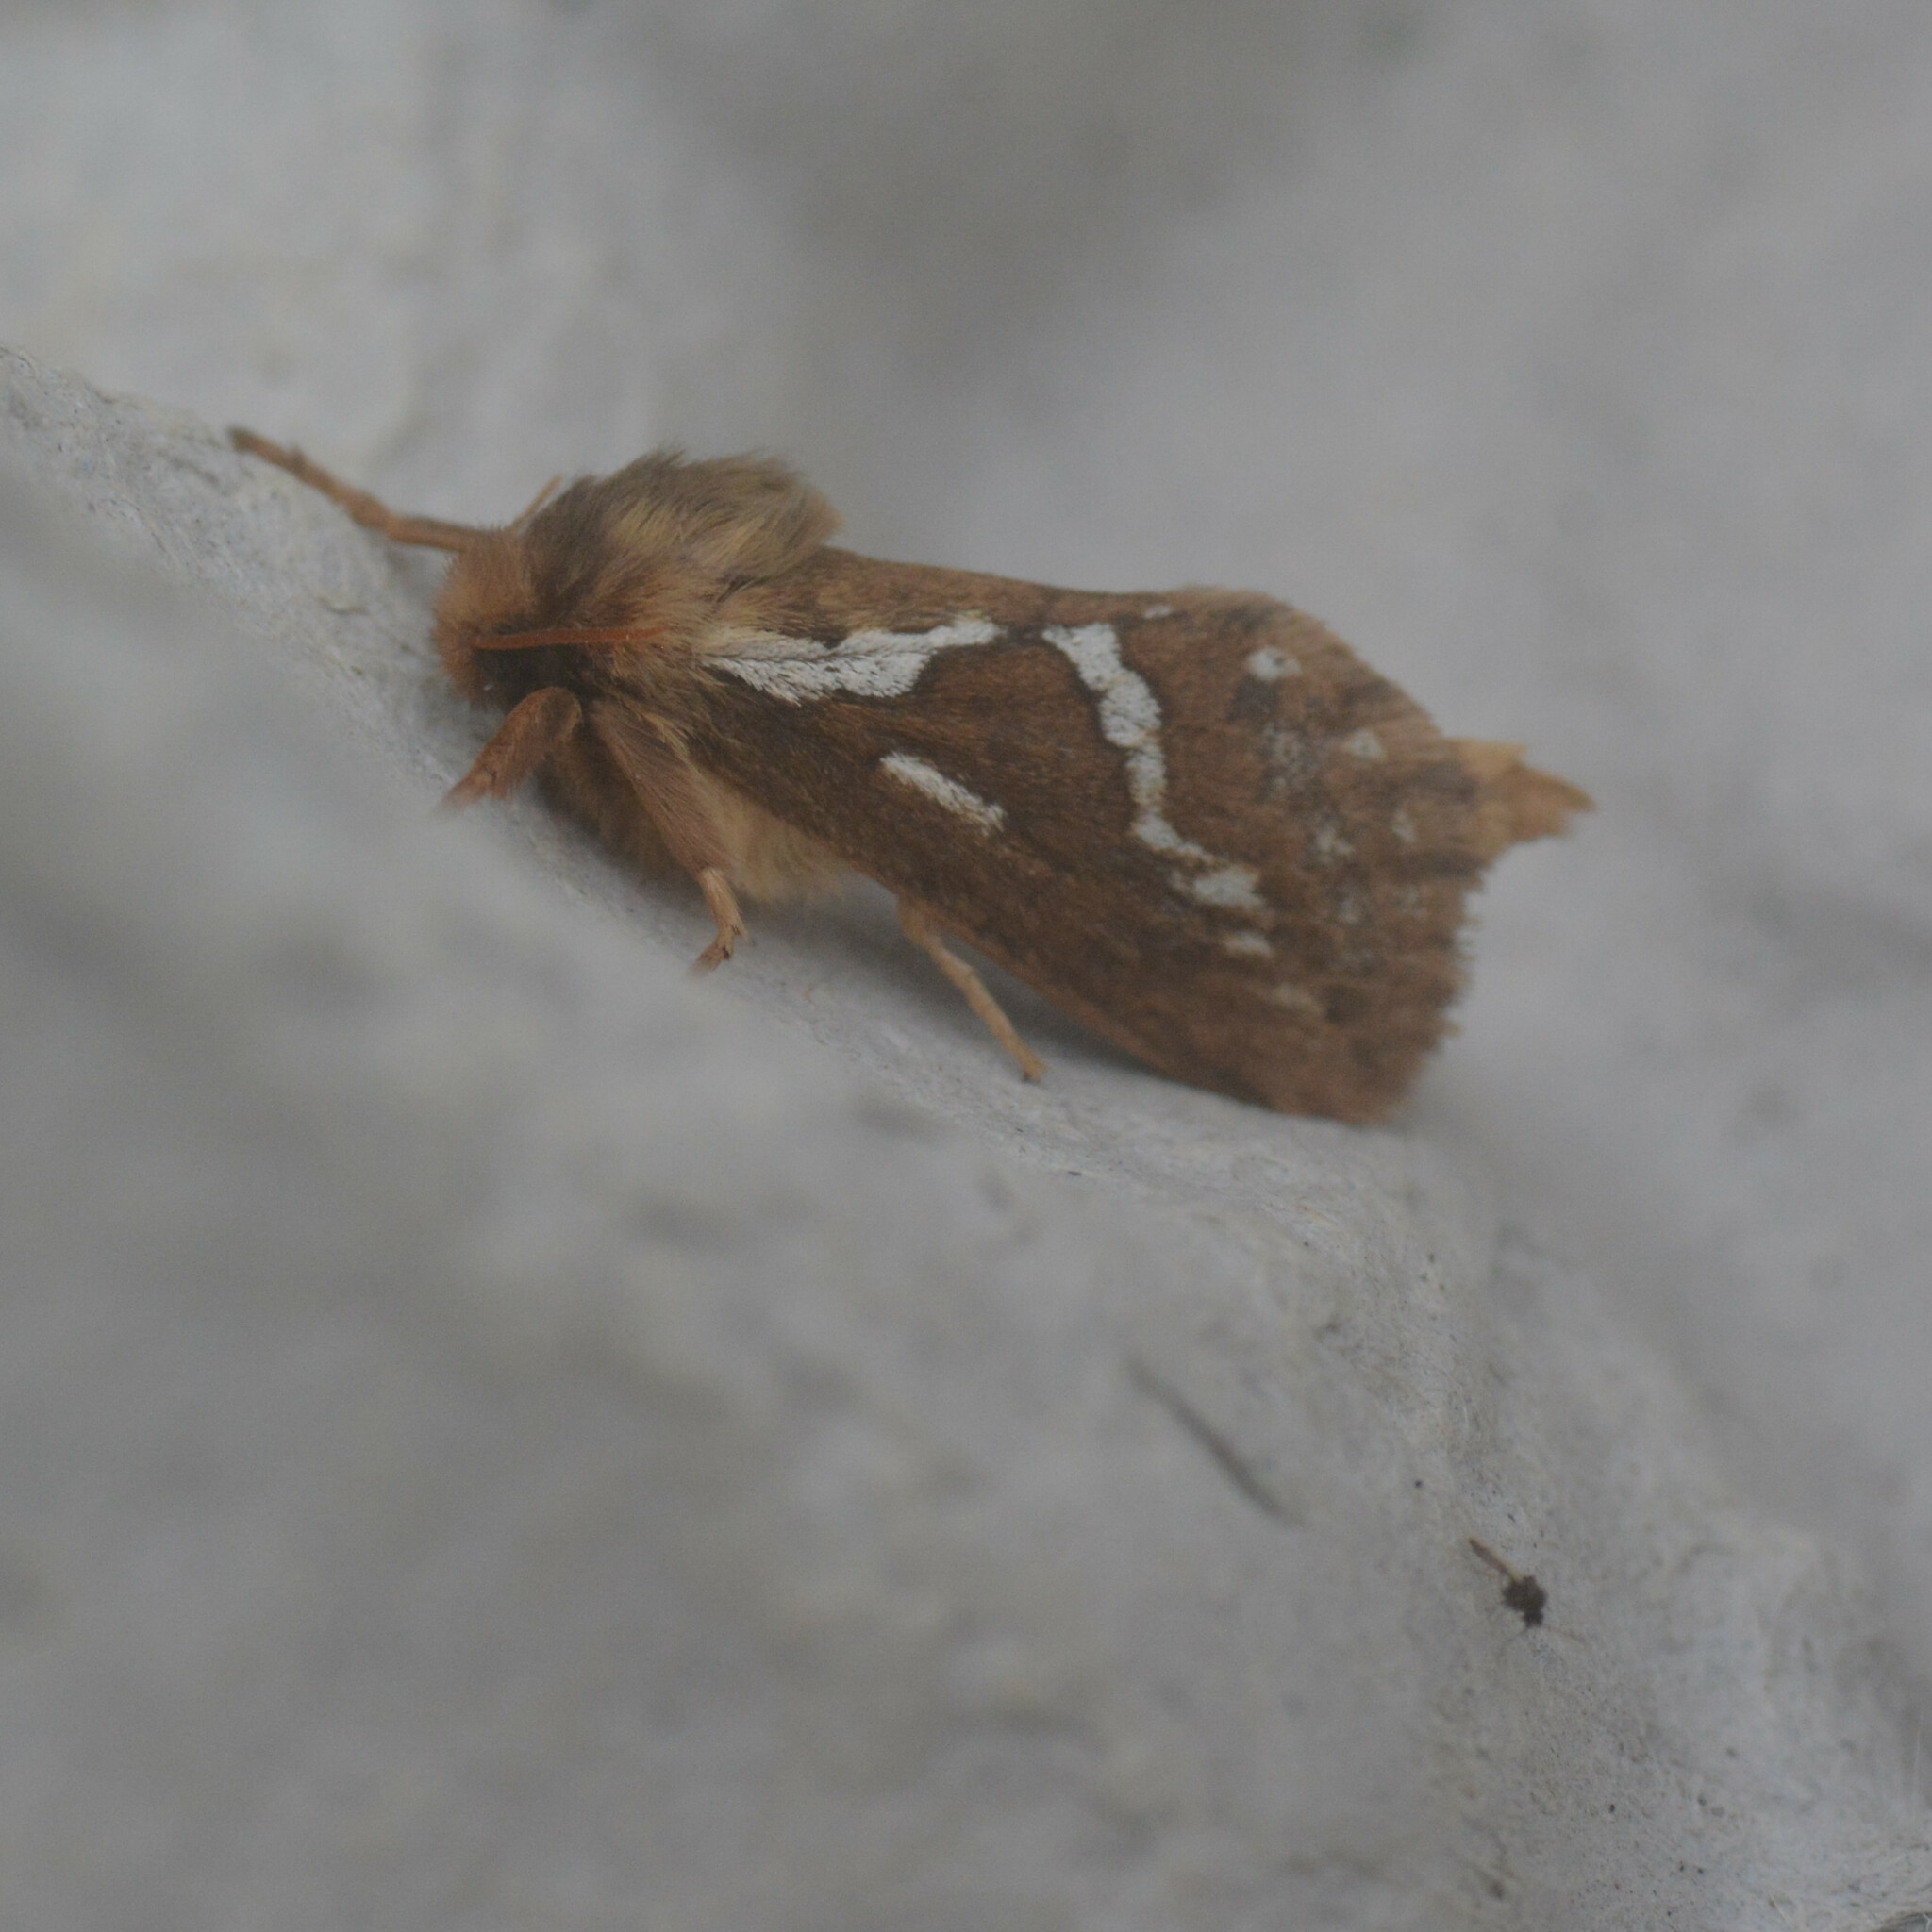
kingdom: Animalia
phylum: Arthropoda
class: Insecta
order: Lepidoptera
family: Hepialidae
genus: Korscheltellus
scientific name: Korscheltellus lupulina
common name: Common swift
